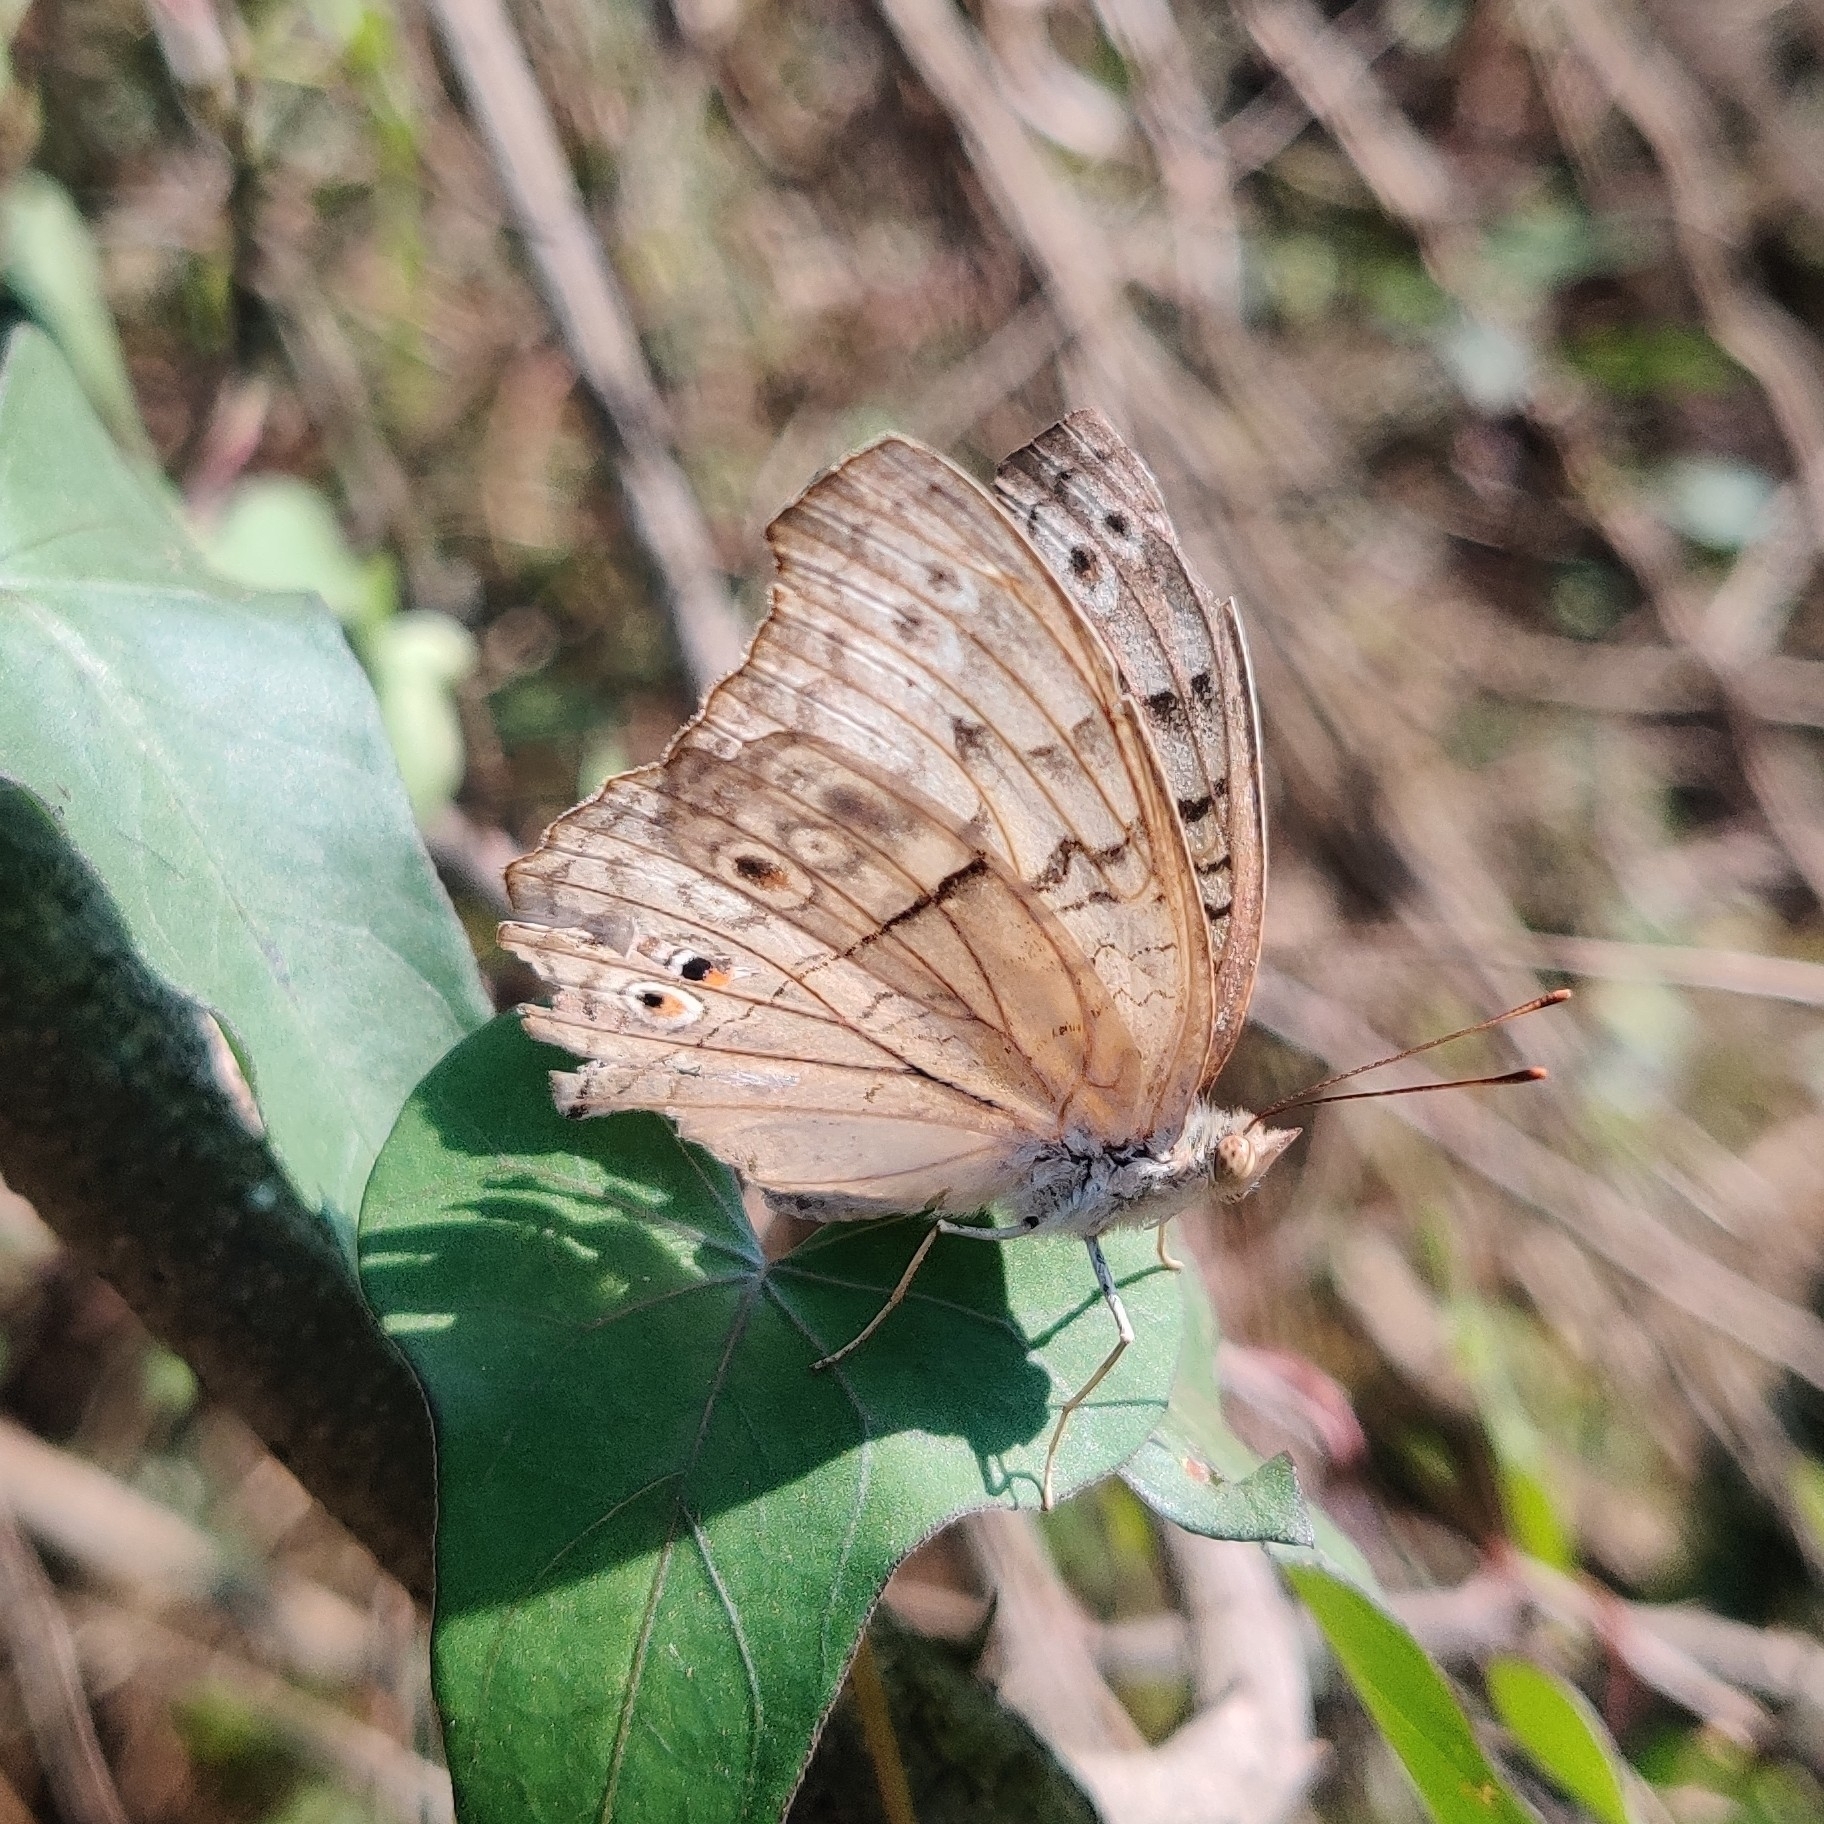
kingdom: Animalia
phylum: Arthropoda
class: Insecta
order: Lepidoptera
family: Nymphalidae
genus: Junonia
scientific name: Junonia atlites
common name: Grey pansy
